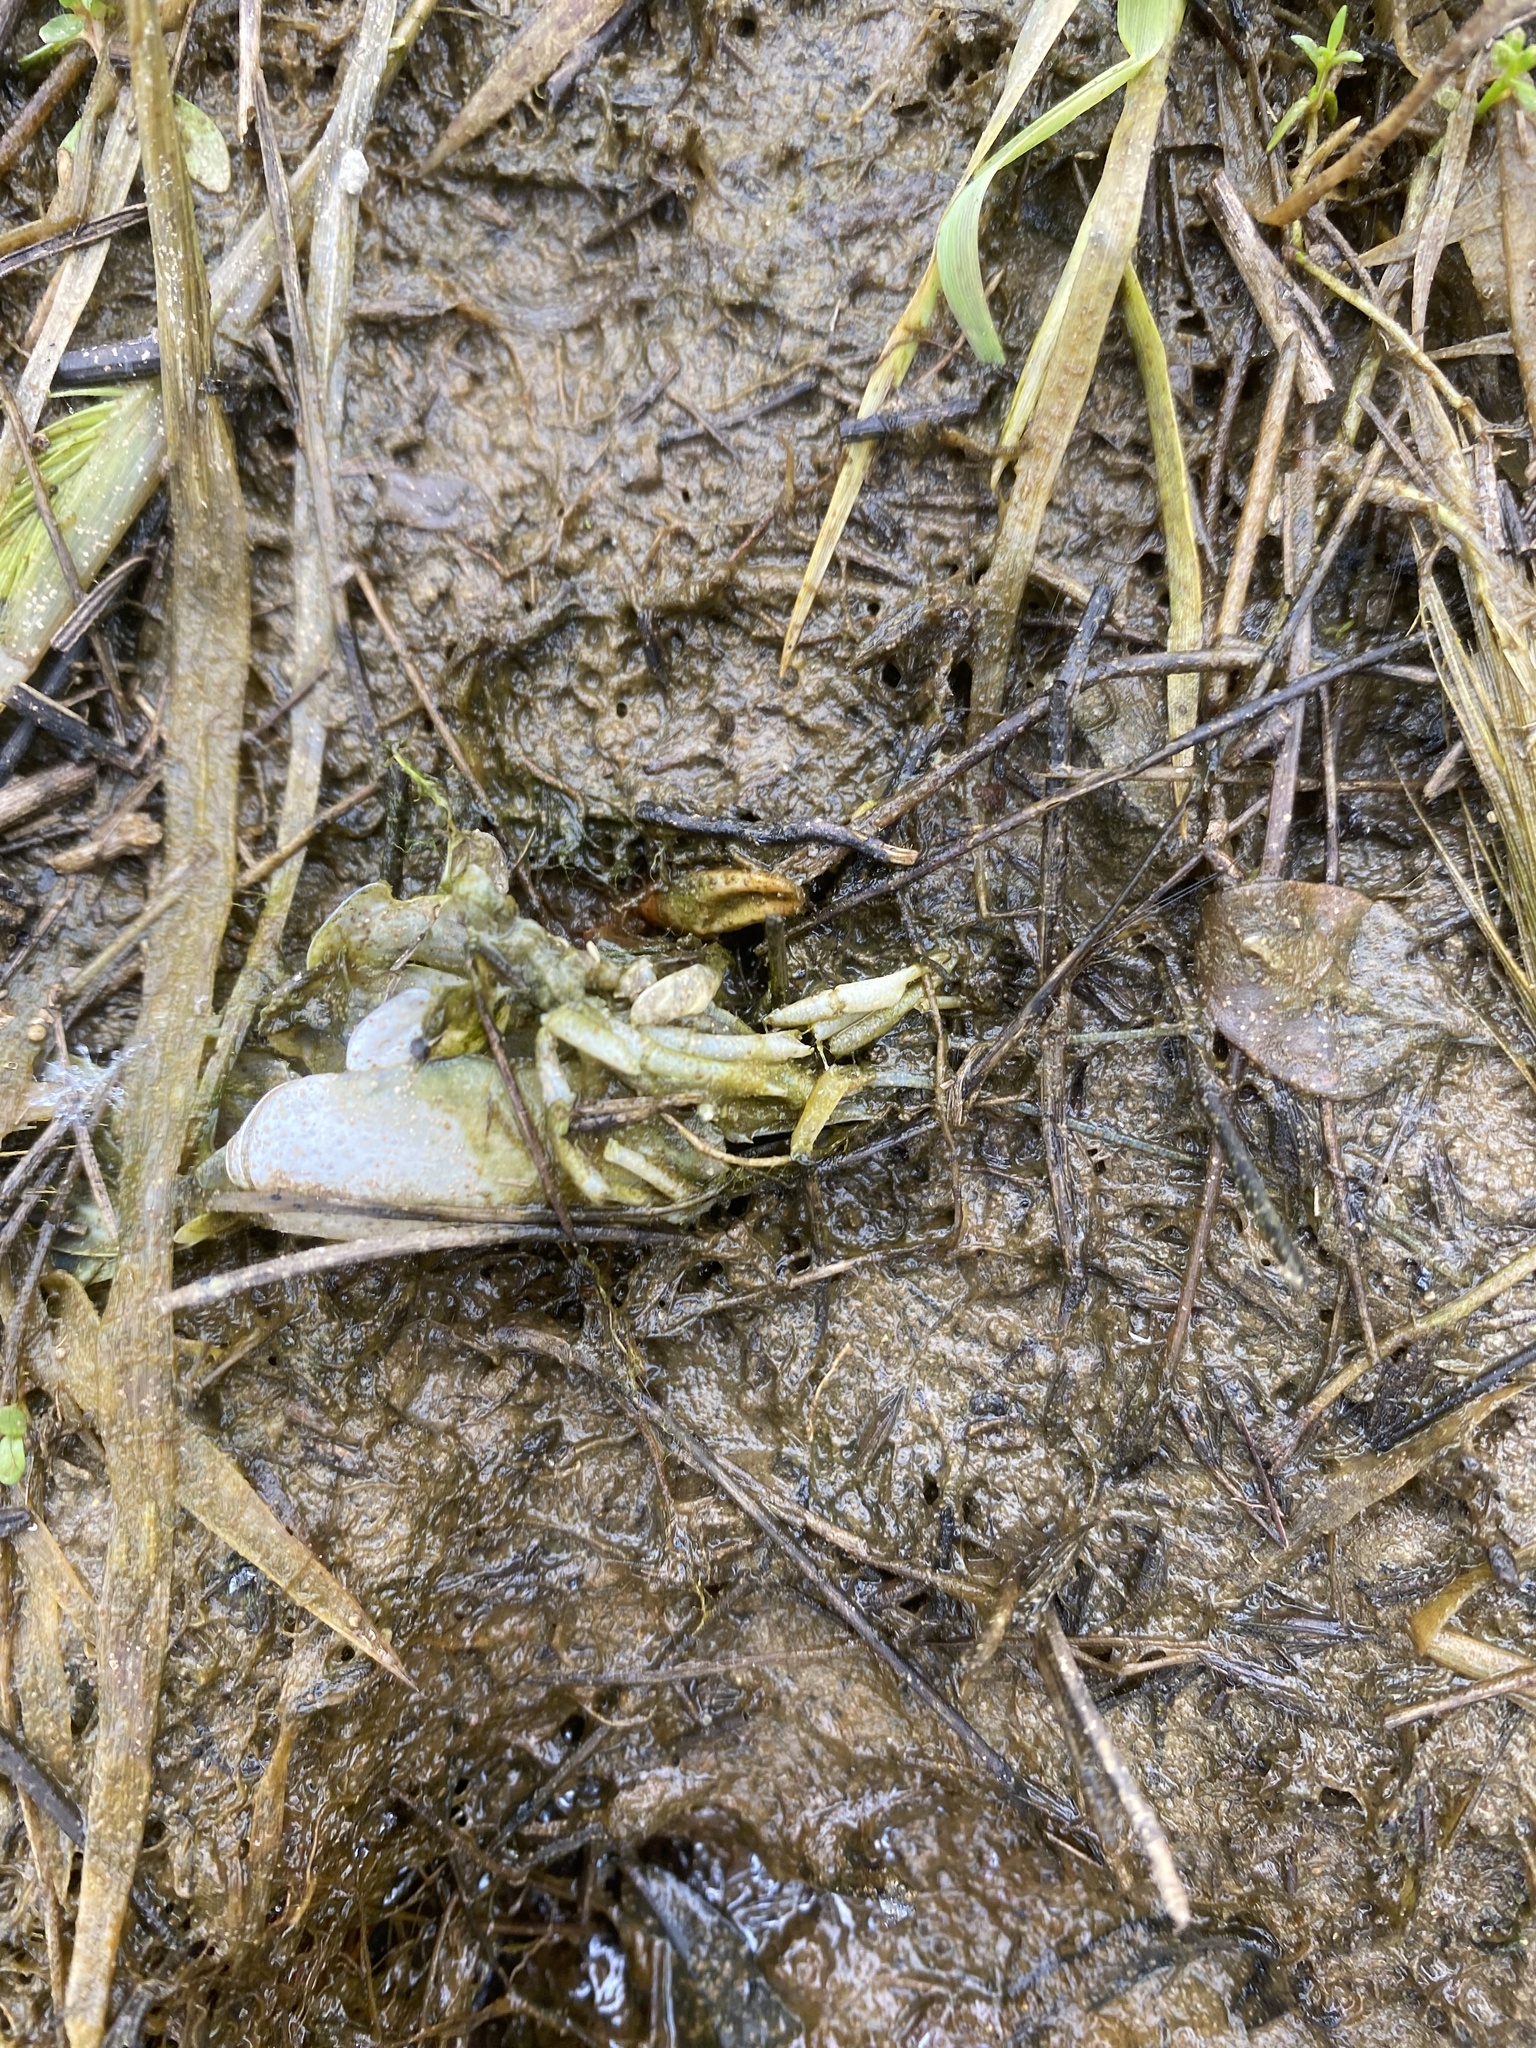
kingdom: Animalia
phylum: Arthropoda
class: Malacostraca
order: Decapoda
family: Cambaridae
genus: Procambarus
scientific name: Procambarus clarkii
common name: Red swamp crayfish
